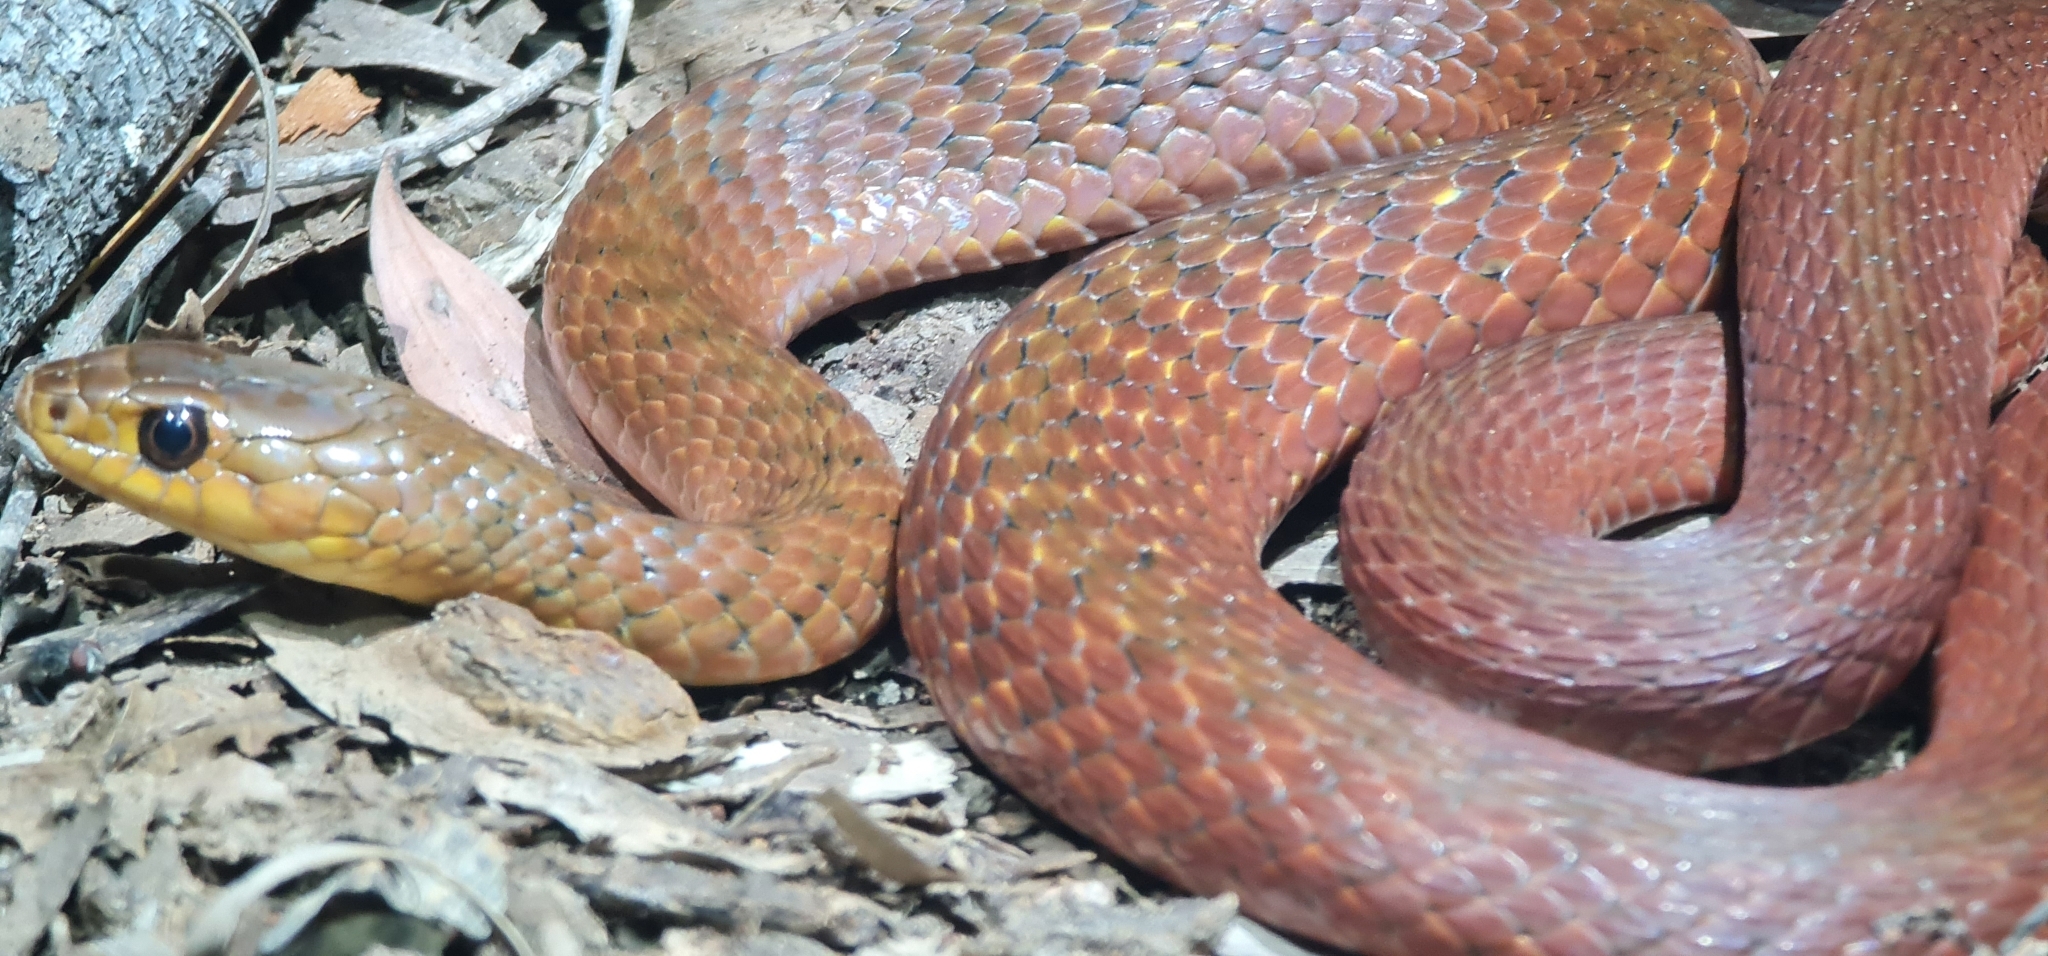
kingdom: Animalia
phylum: Chordata
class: Squamata
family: Colubridae
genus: Tropidonophis
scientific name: Tropidonophis mairii
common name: Common keelback
